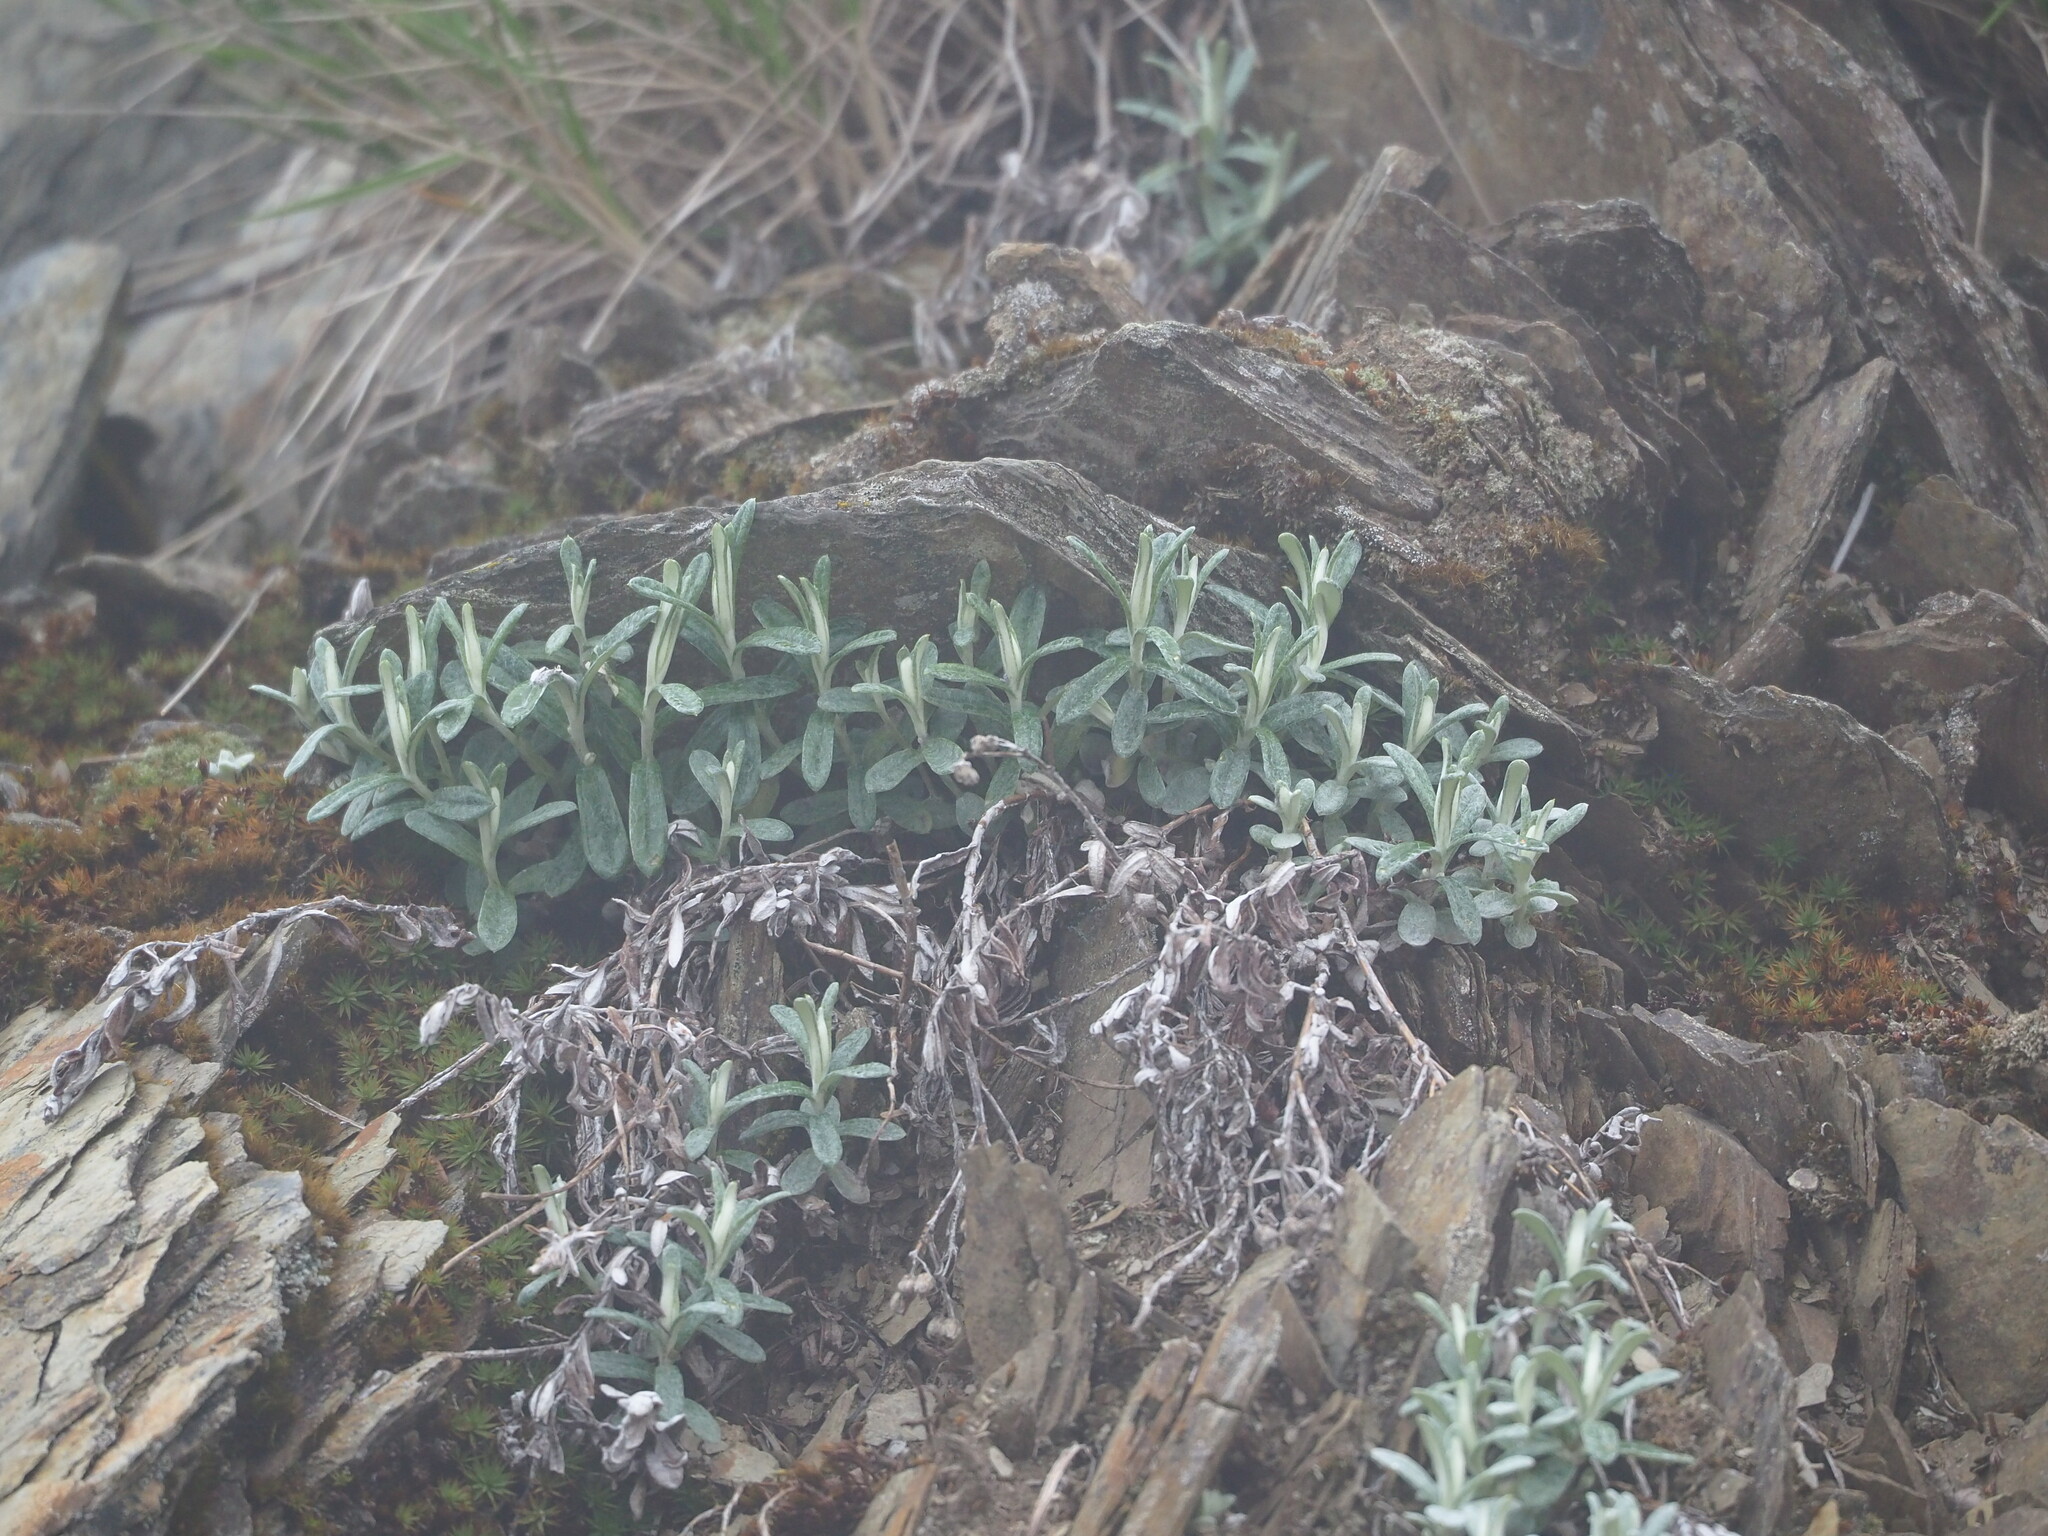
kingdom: Plantae
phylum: Tracheophyta
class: Magnoliopsida
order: Asterales
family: Asteraceae
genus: Anaphalis
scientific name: Anaphalis morrisonicola
